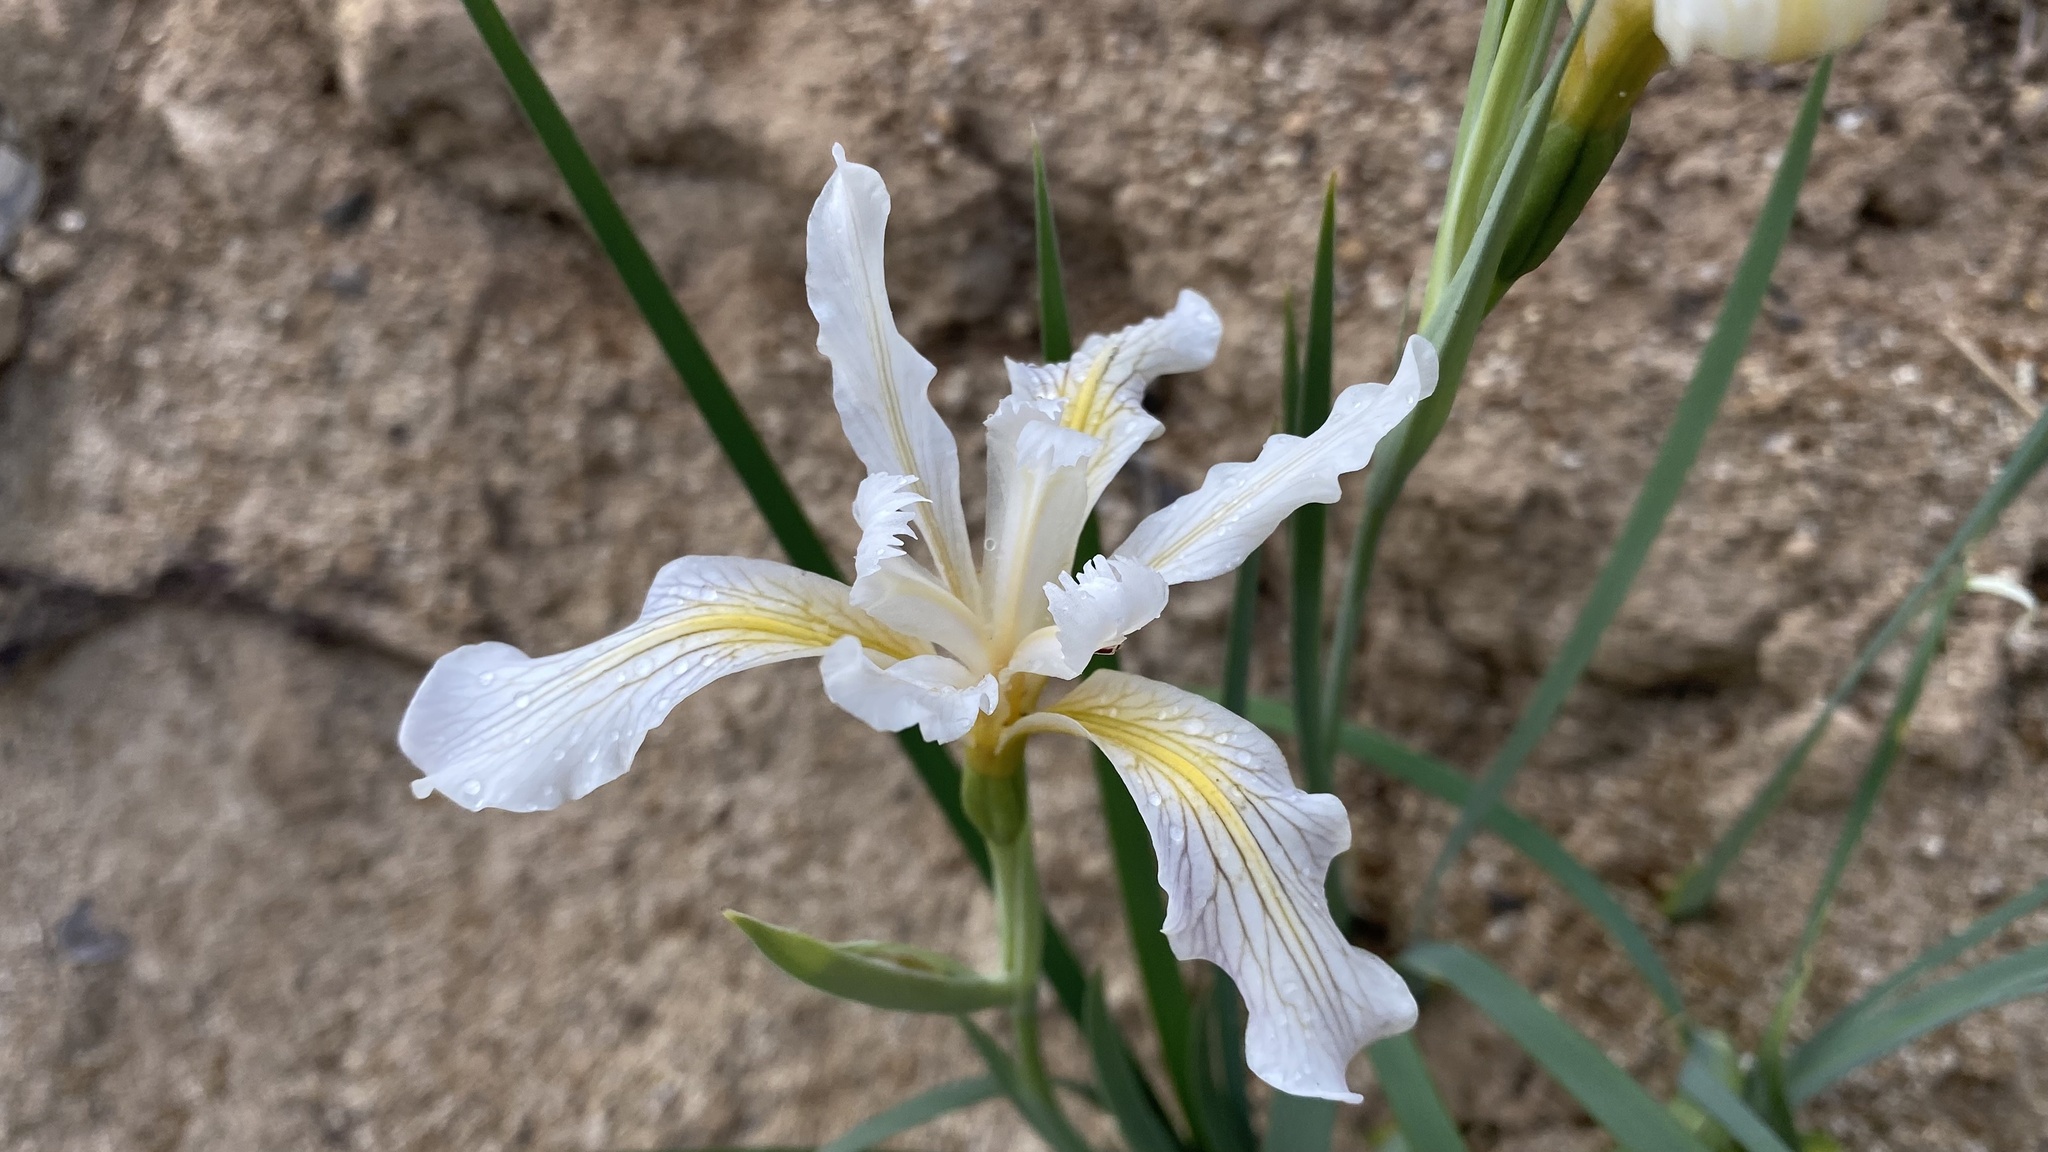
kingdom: Plantae
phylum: Tracheophyta
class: Liliopsida
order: Asparagales
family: Iridaceae
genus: Iris
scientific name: Iris hartwegii
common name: Sierra iris
